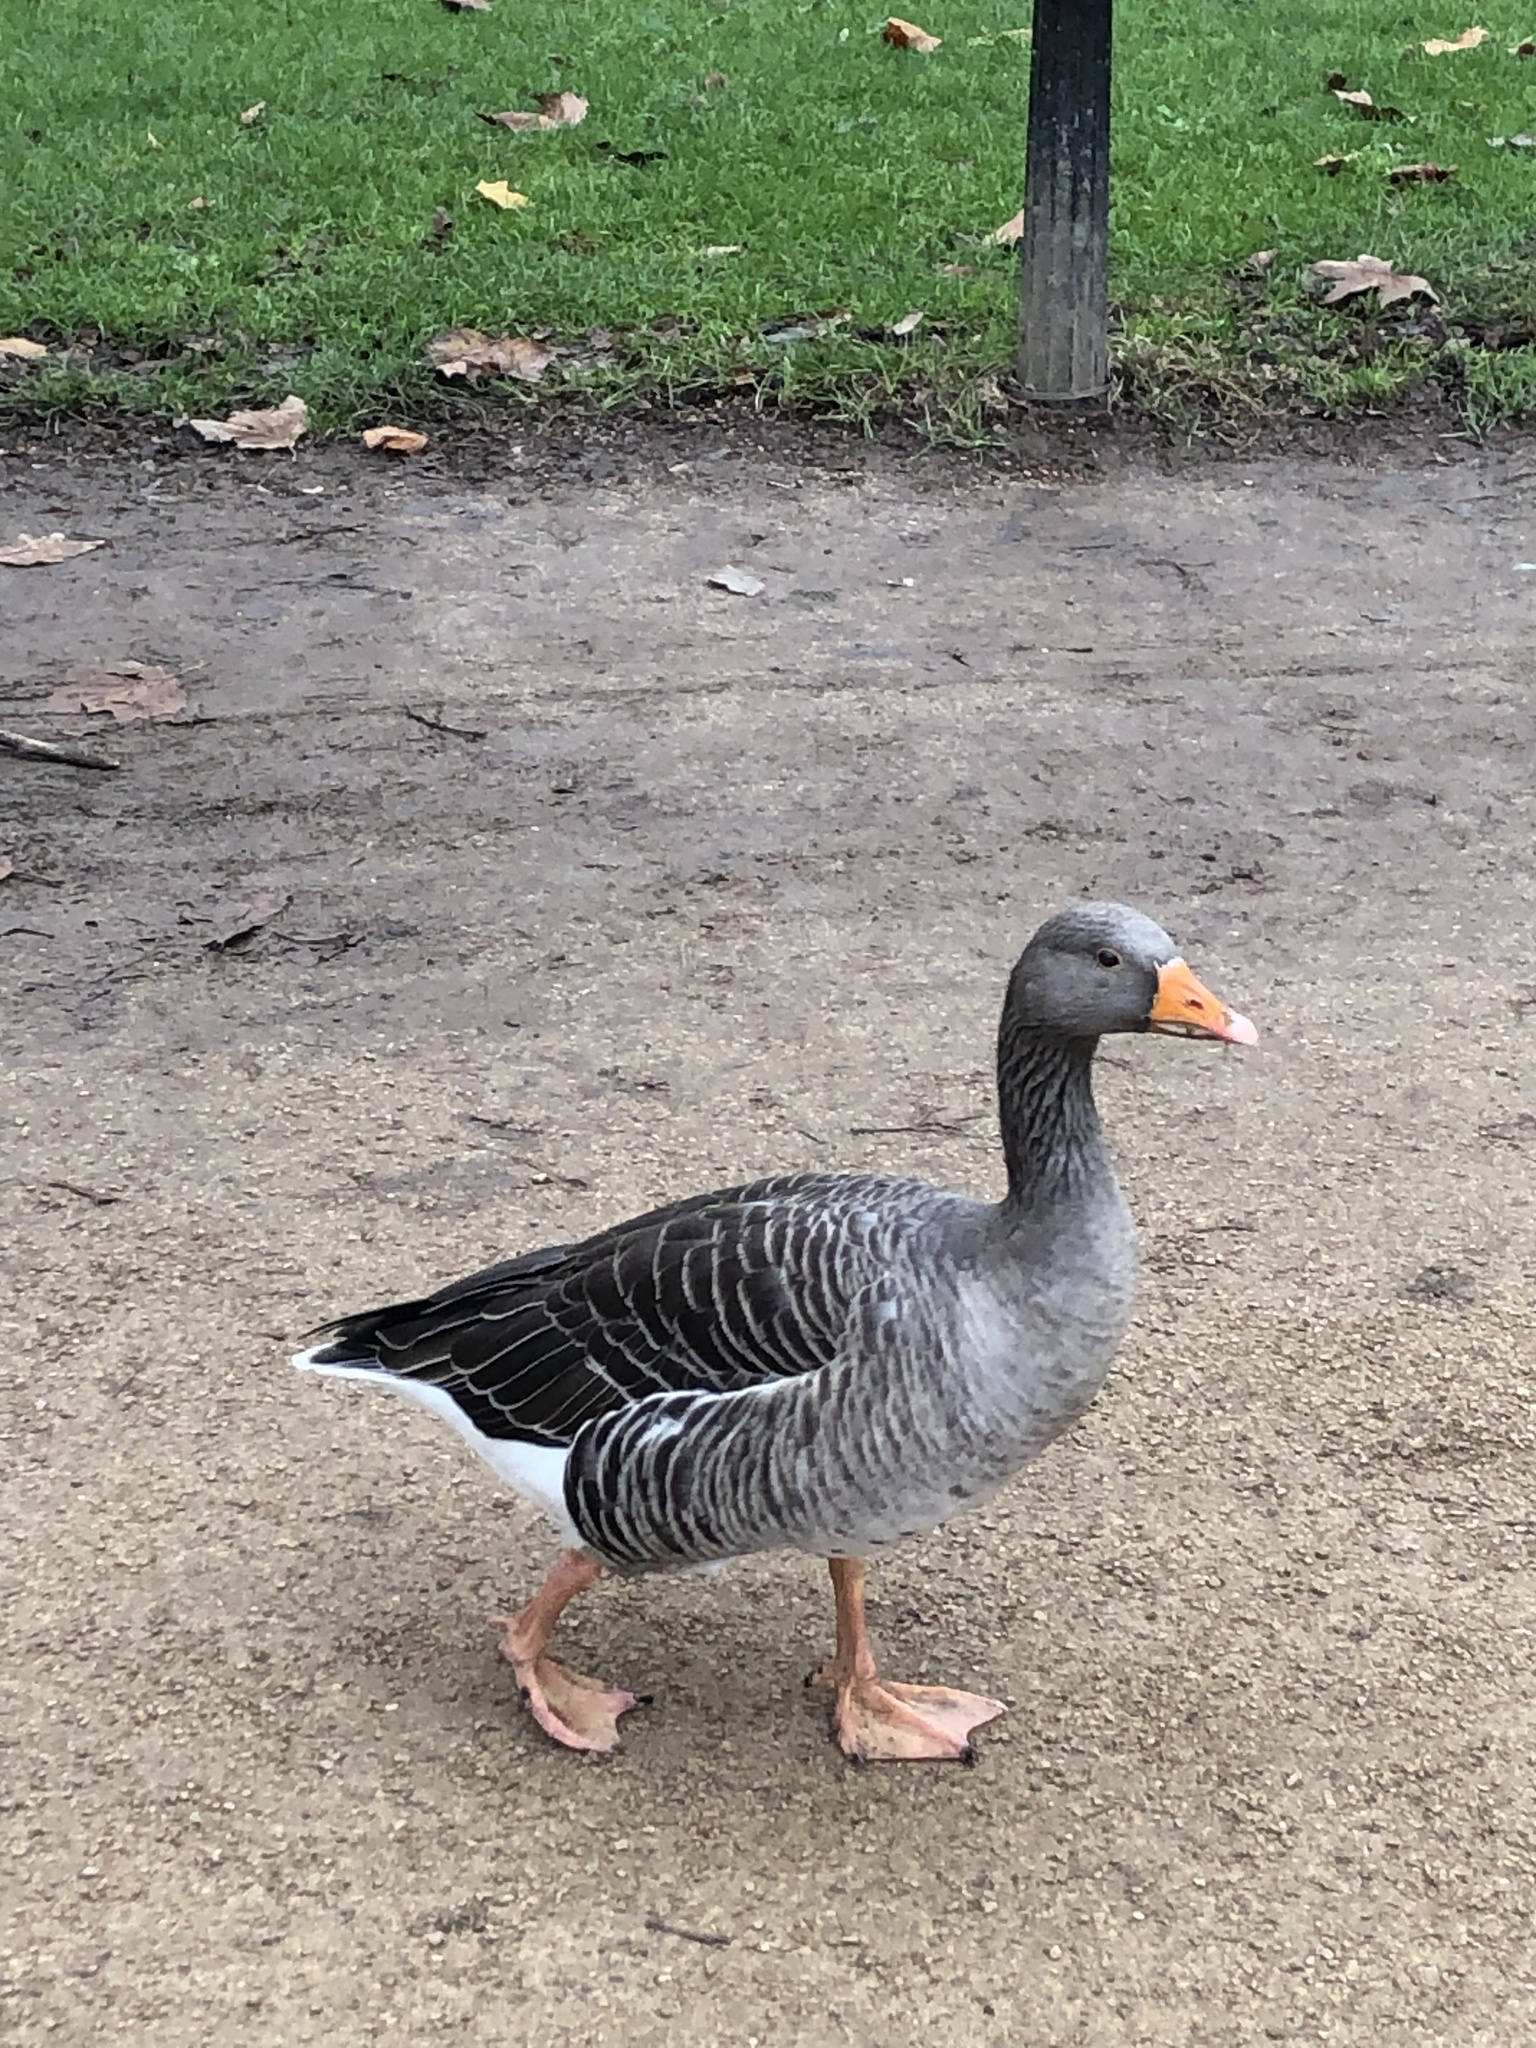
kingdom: Animalia
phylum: Chordata
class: Aves
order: Anseriformes
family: Anatidae
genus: Anser
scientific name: Anser anser
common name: Greylag goose
